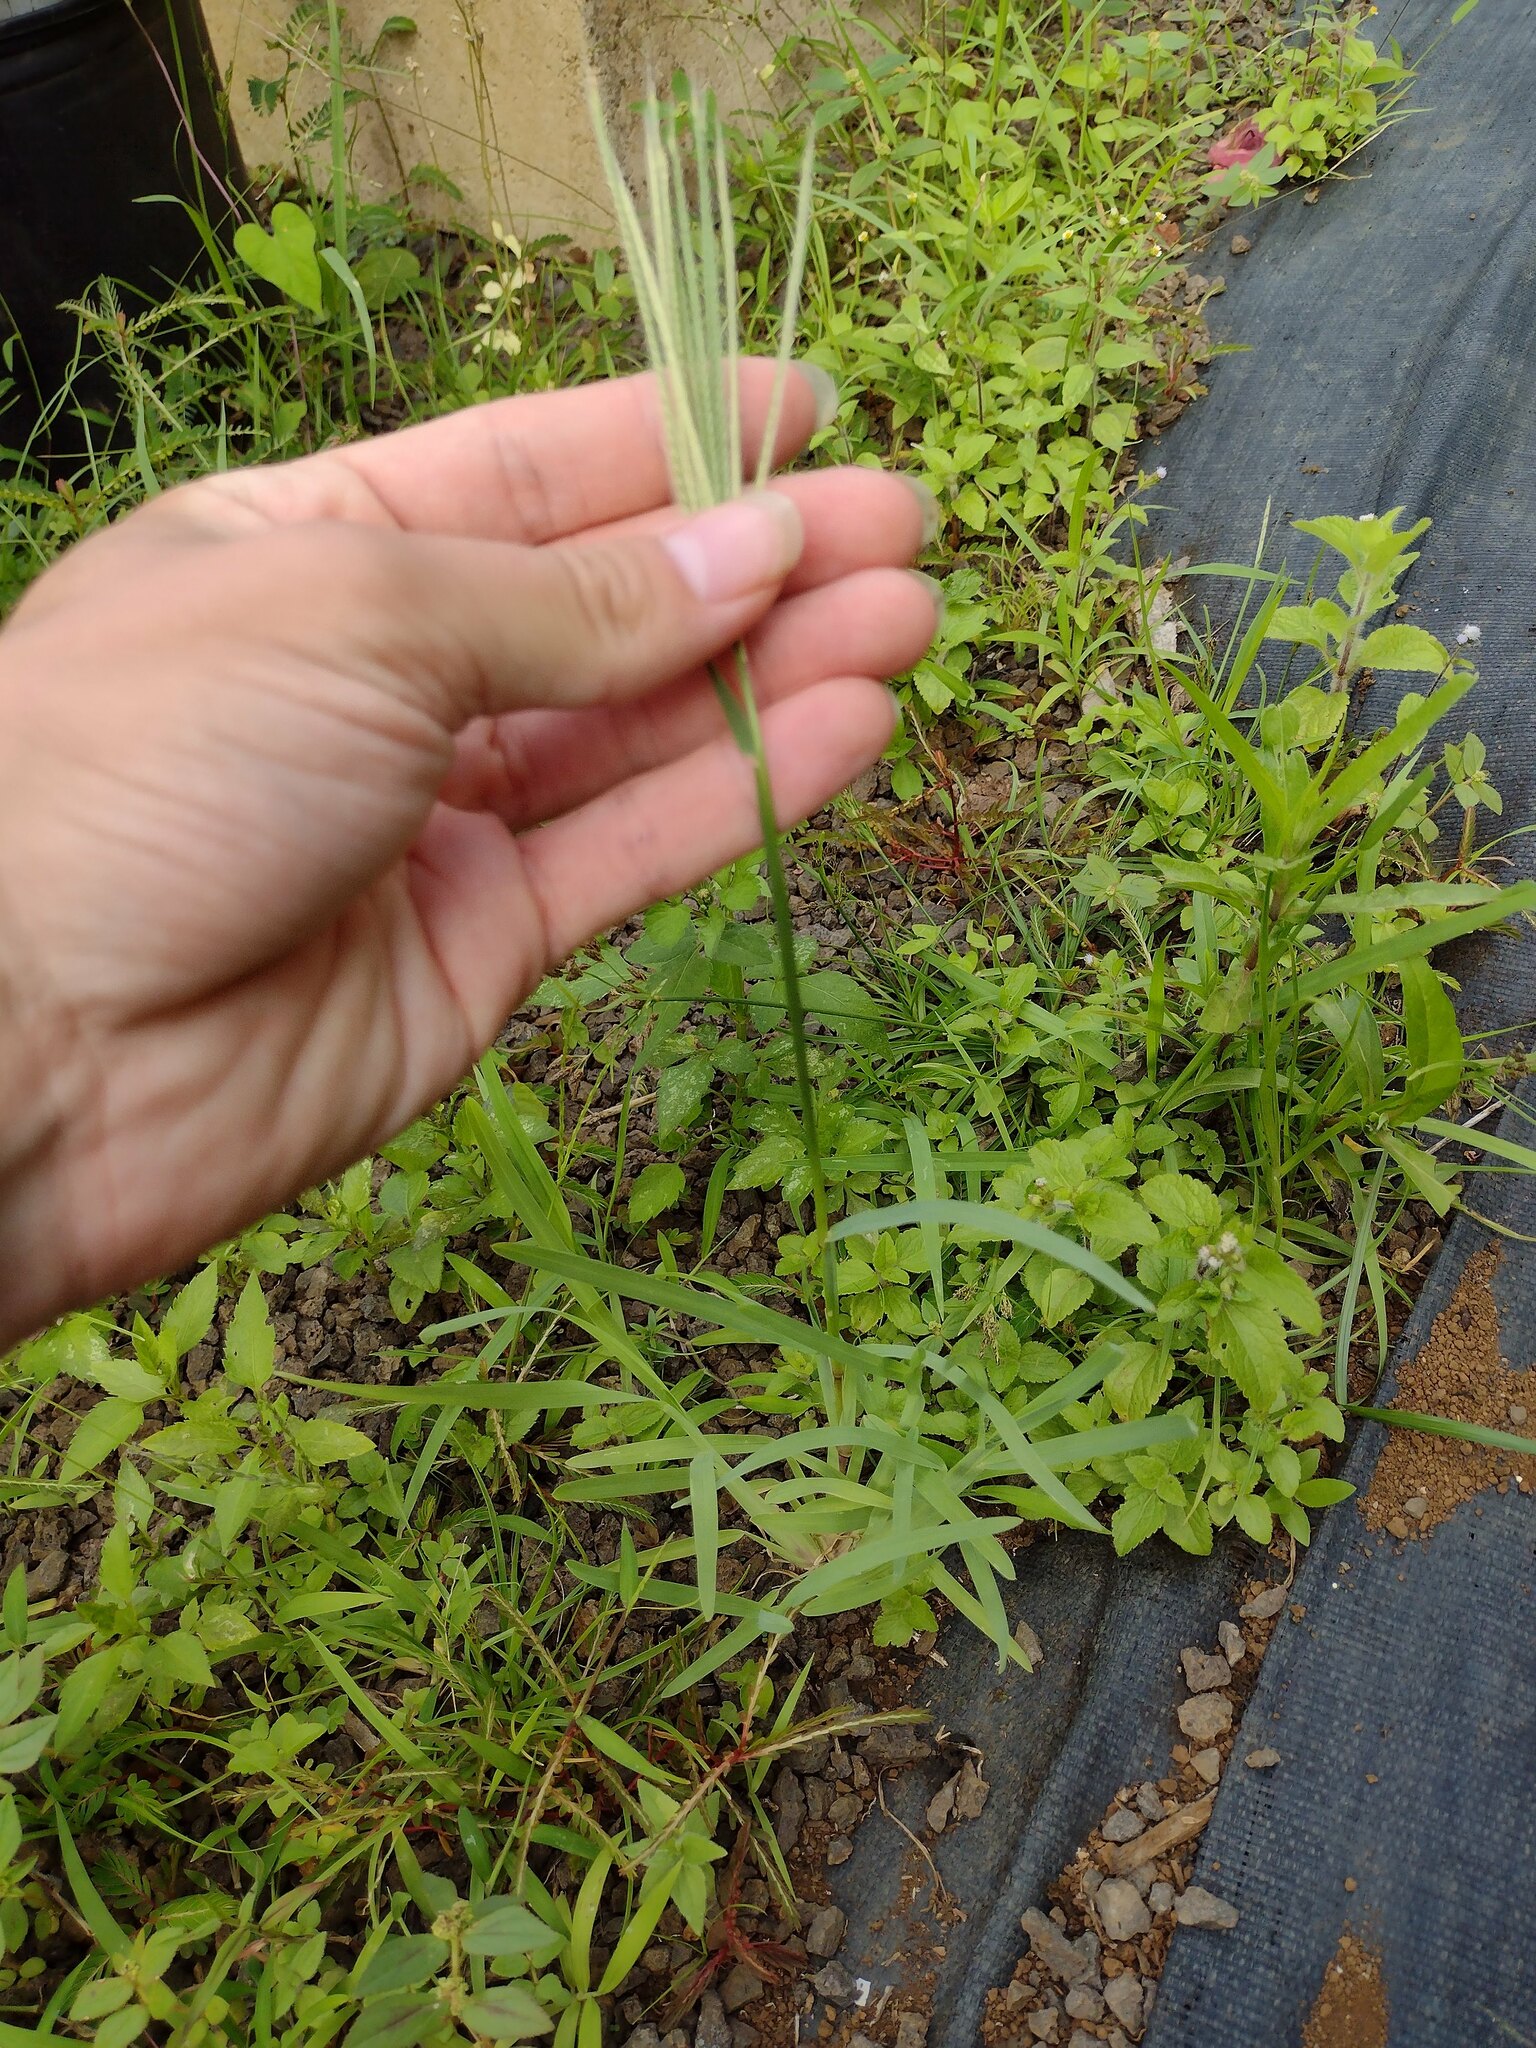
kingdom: Plantae
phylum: Tracheophyta
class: Liliopsida
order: Poales
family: Poaceae
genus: Chloris
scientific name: Chloris radiata
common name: Radiate fingergrass
